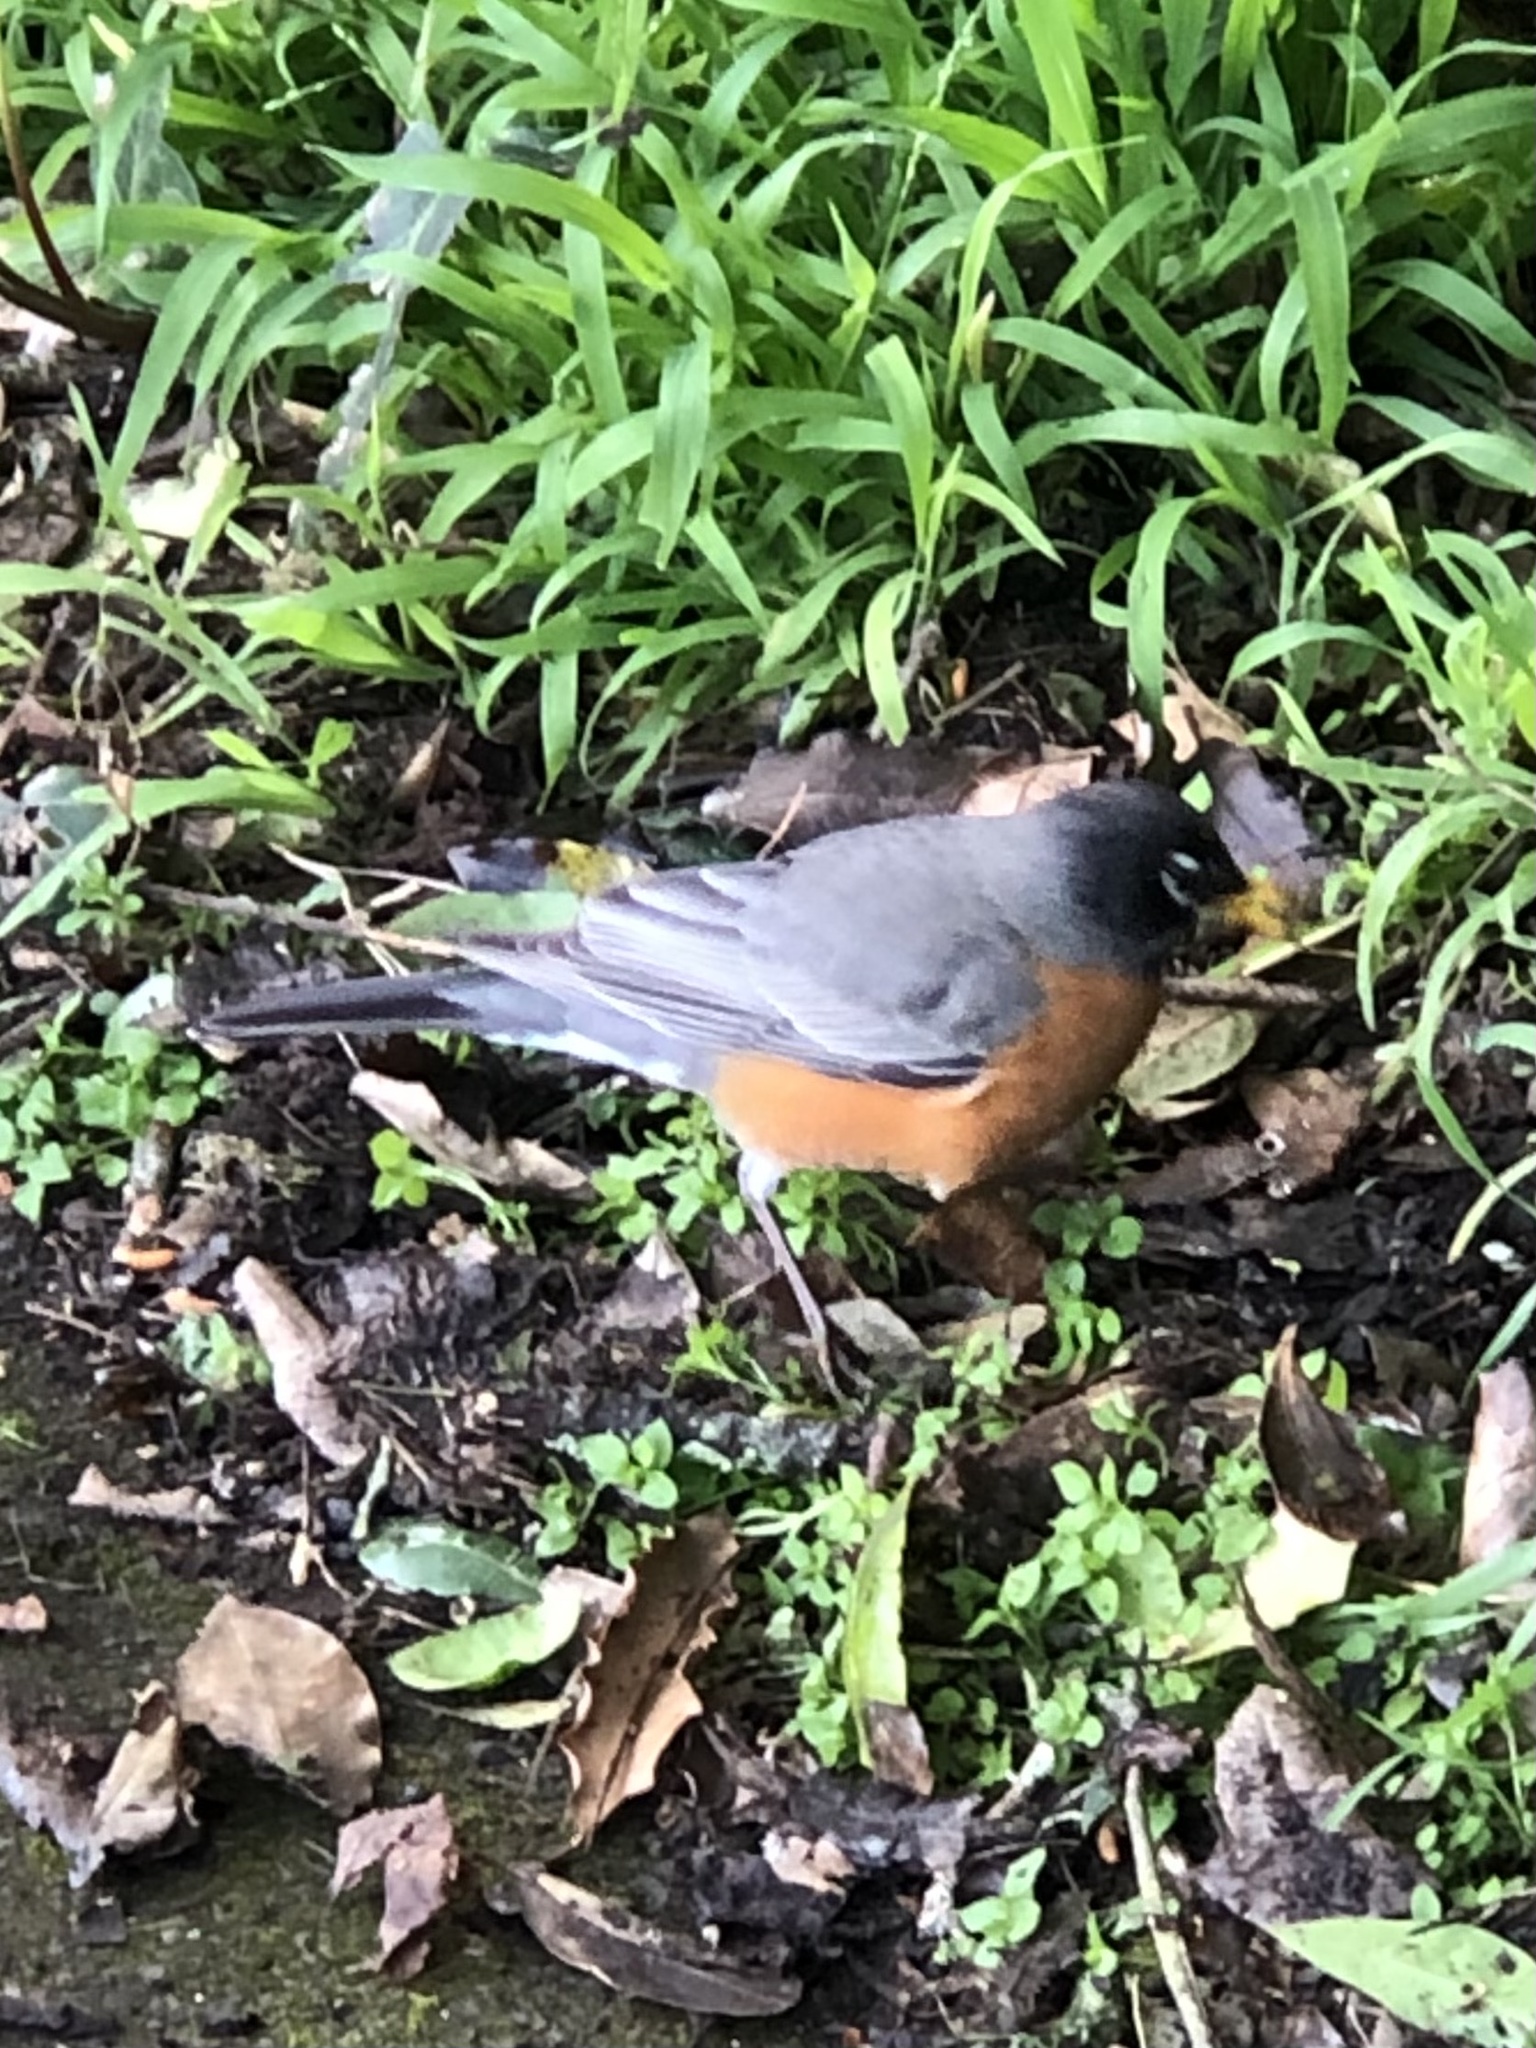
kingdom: Animalia
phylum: Chordata
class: Aves
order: Passeriformes
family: Turdidae
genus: Turdus
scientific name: Turdus migratorius
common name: American robin
